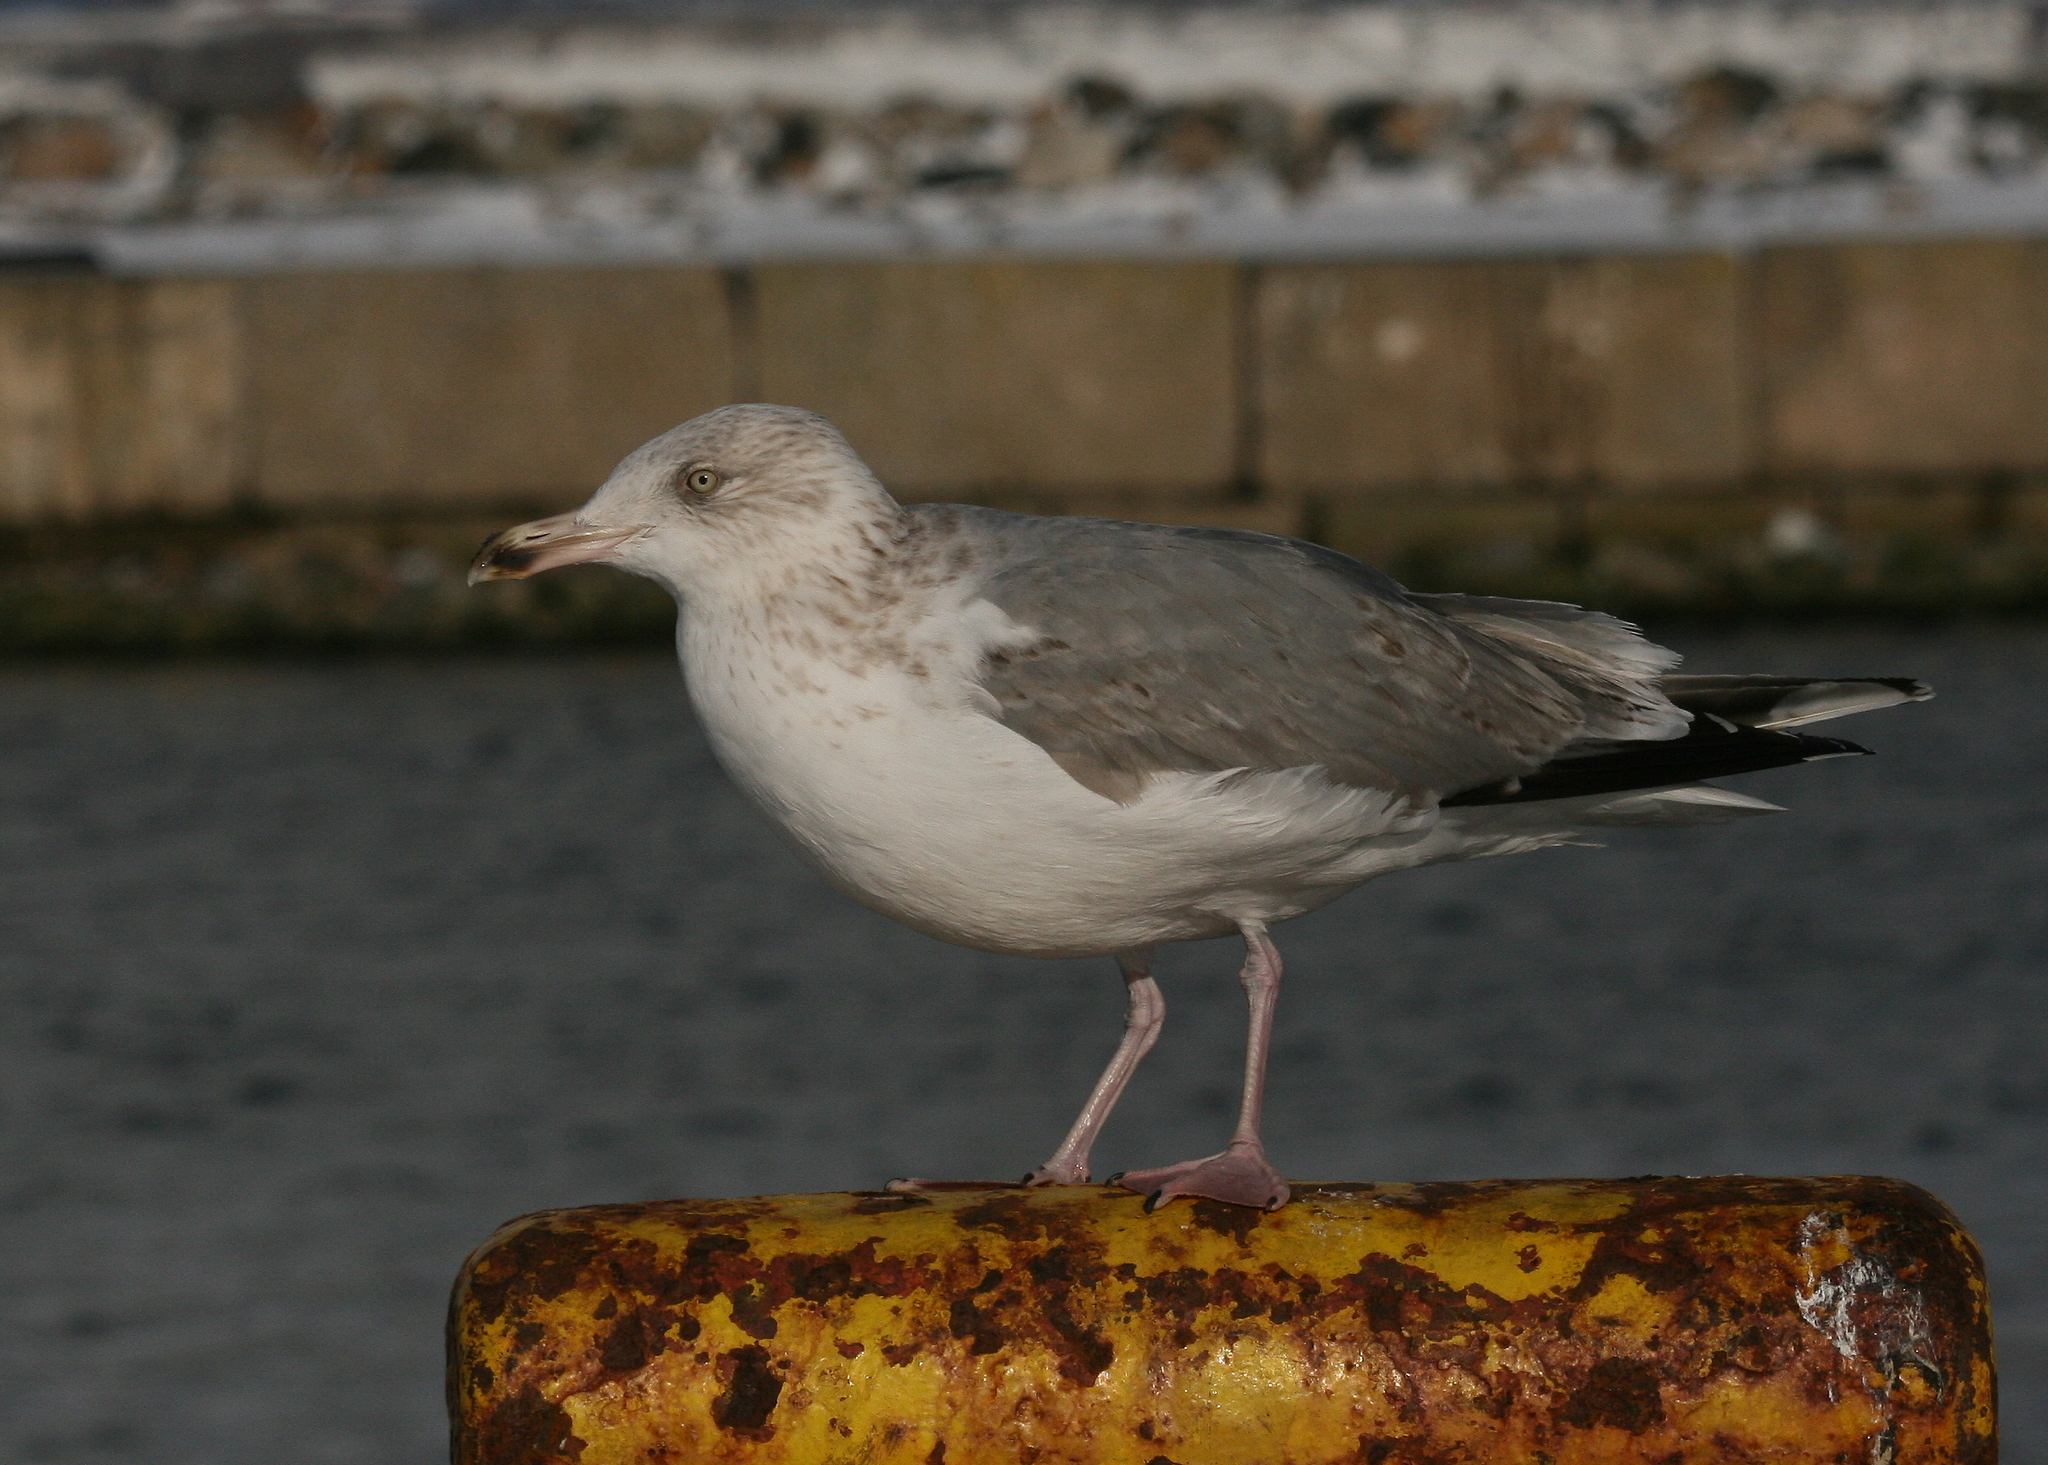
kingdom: Animalia
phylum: Chordata
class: Aves
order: Charadriiformes
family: Laridae
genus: Larus
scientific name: Larus argentatus
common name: Herring gull
